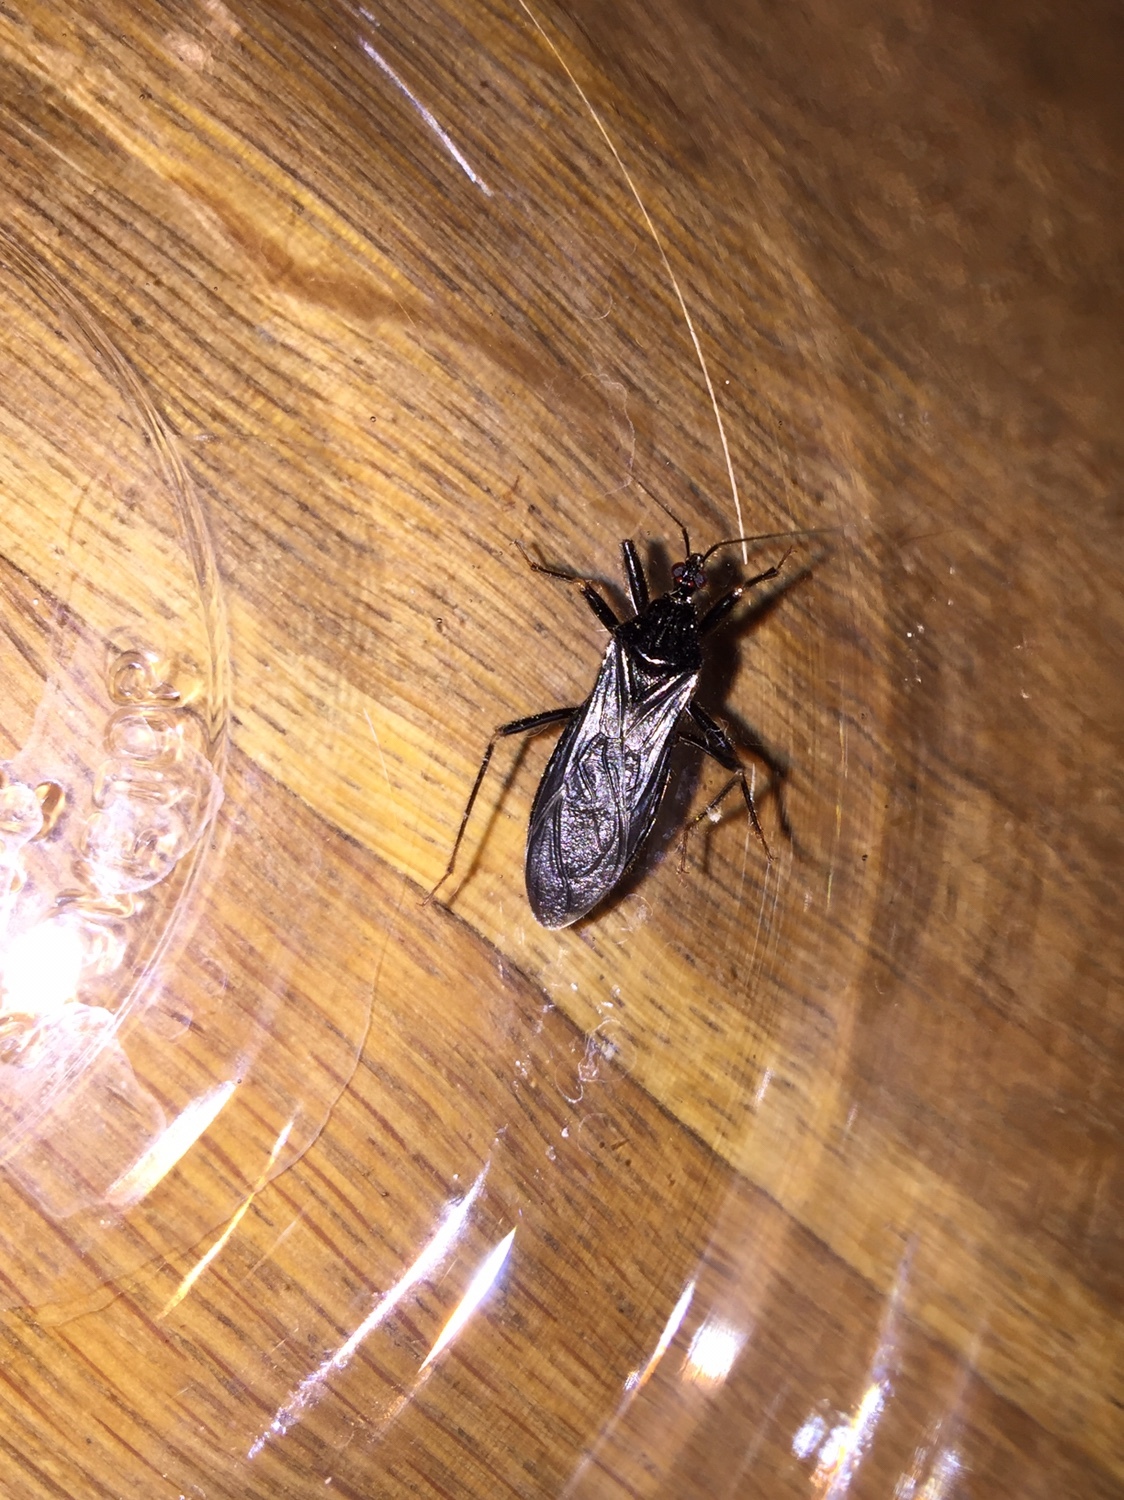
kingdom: Animalia
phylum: Arthropoda
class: Insecta
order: Hemiptera
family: Reduviidae
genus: Reduvius
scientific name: Reduvius personatus
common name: Masked hunter
